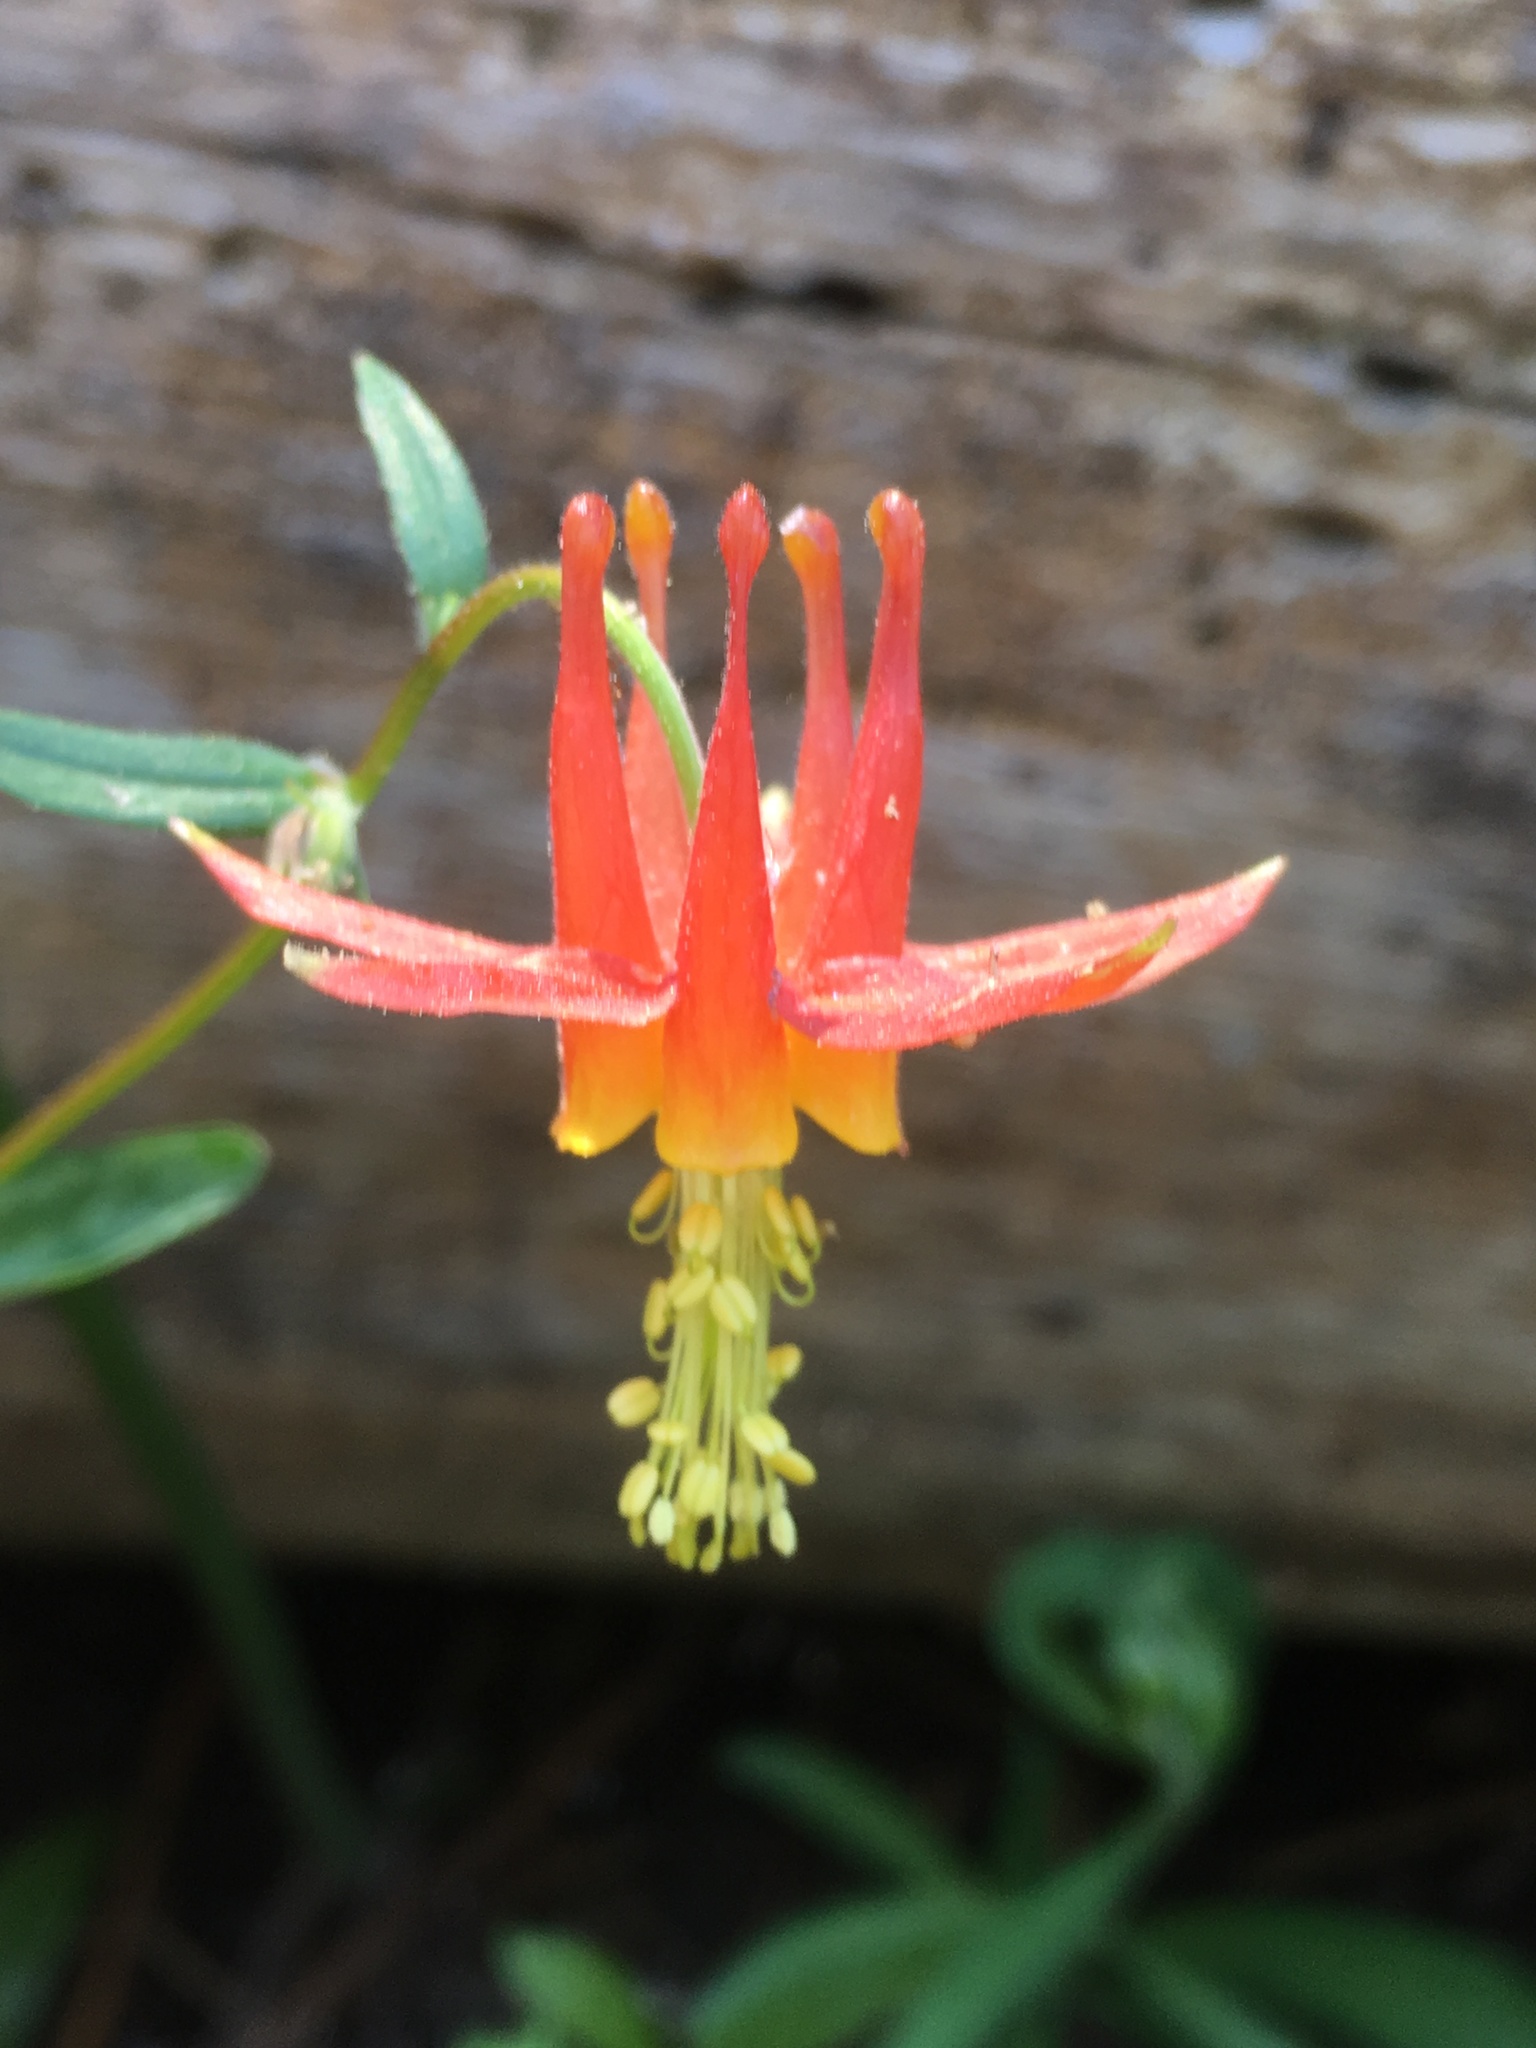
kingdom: Plantae
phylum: Tracheophyta
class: Magnoliopsida
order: Ranunculales
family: Ranunculaceae
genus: Aquilegia
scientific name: Aquilegia formosa
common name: Sitka columbine
